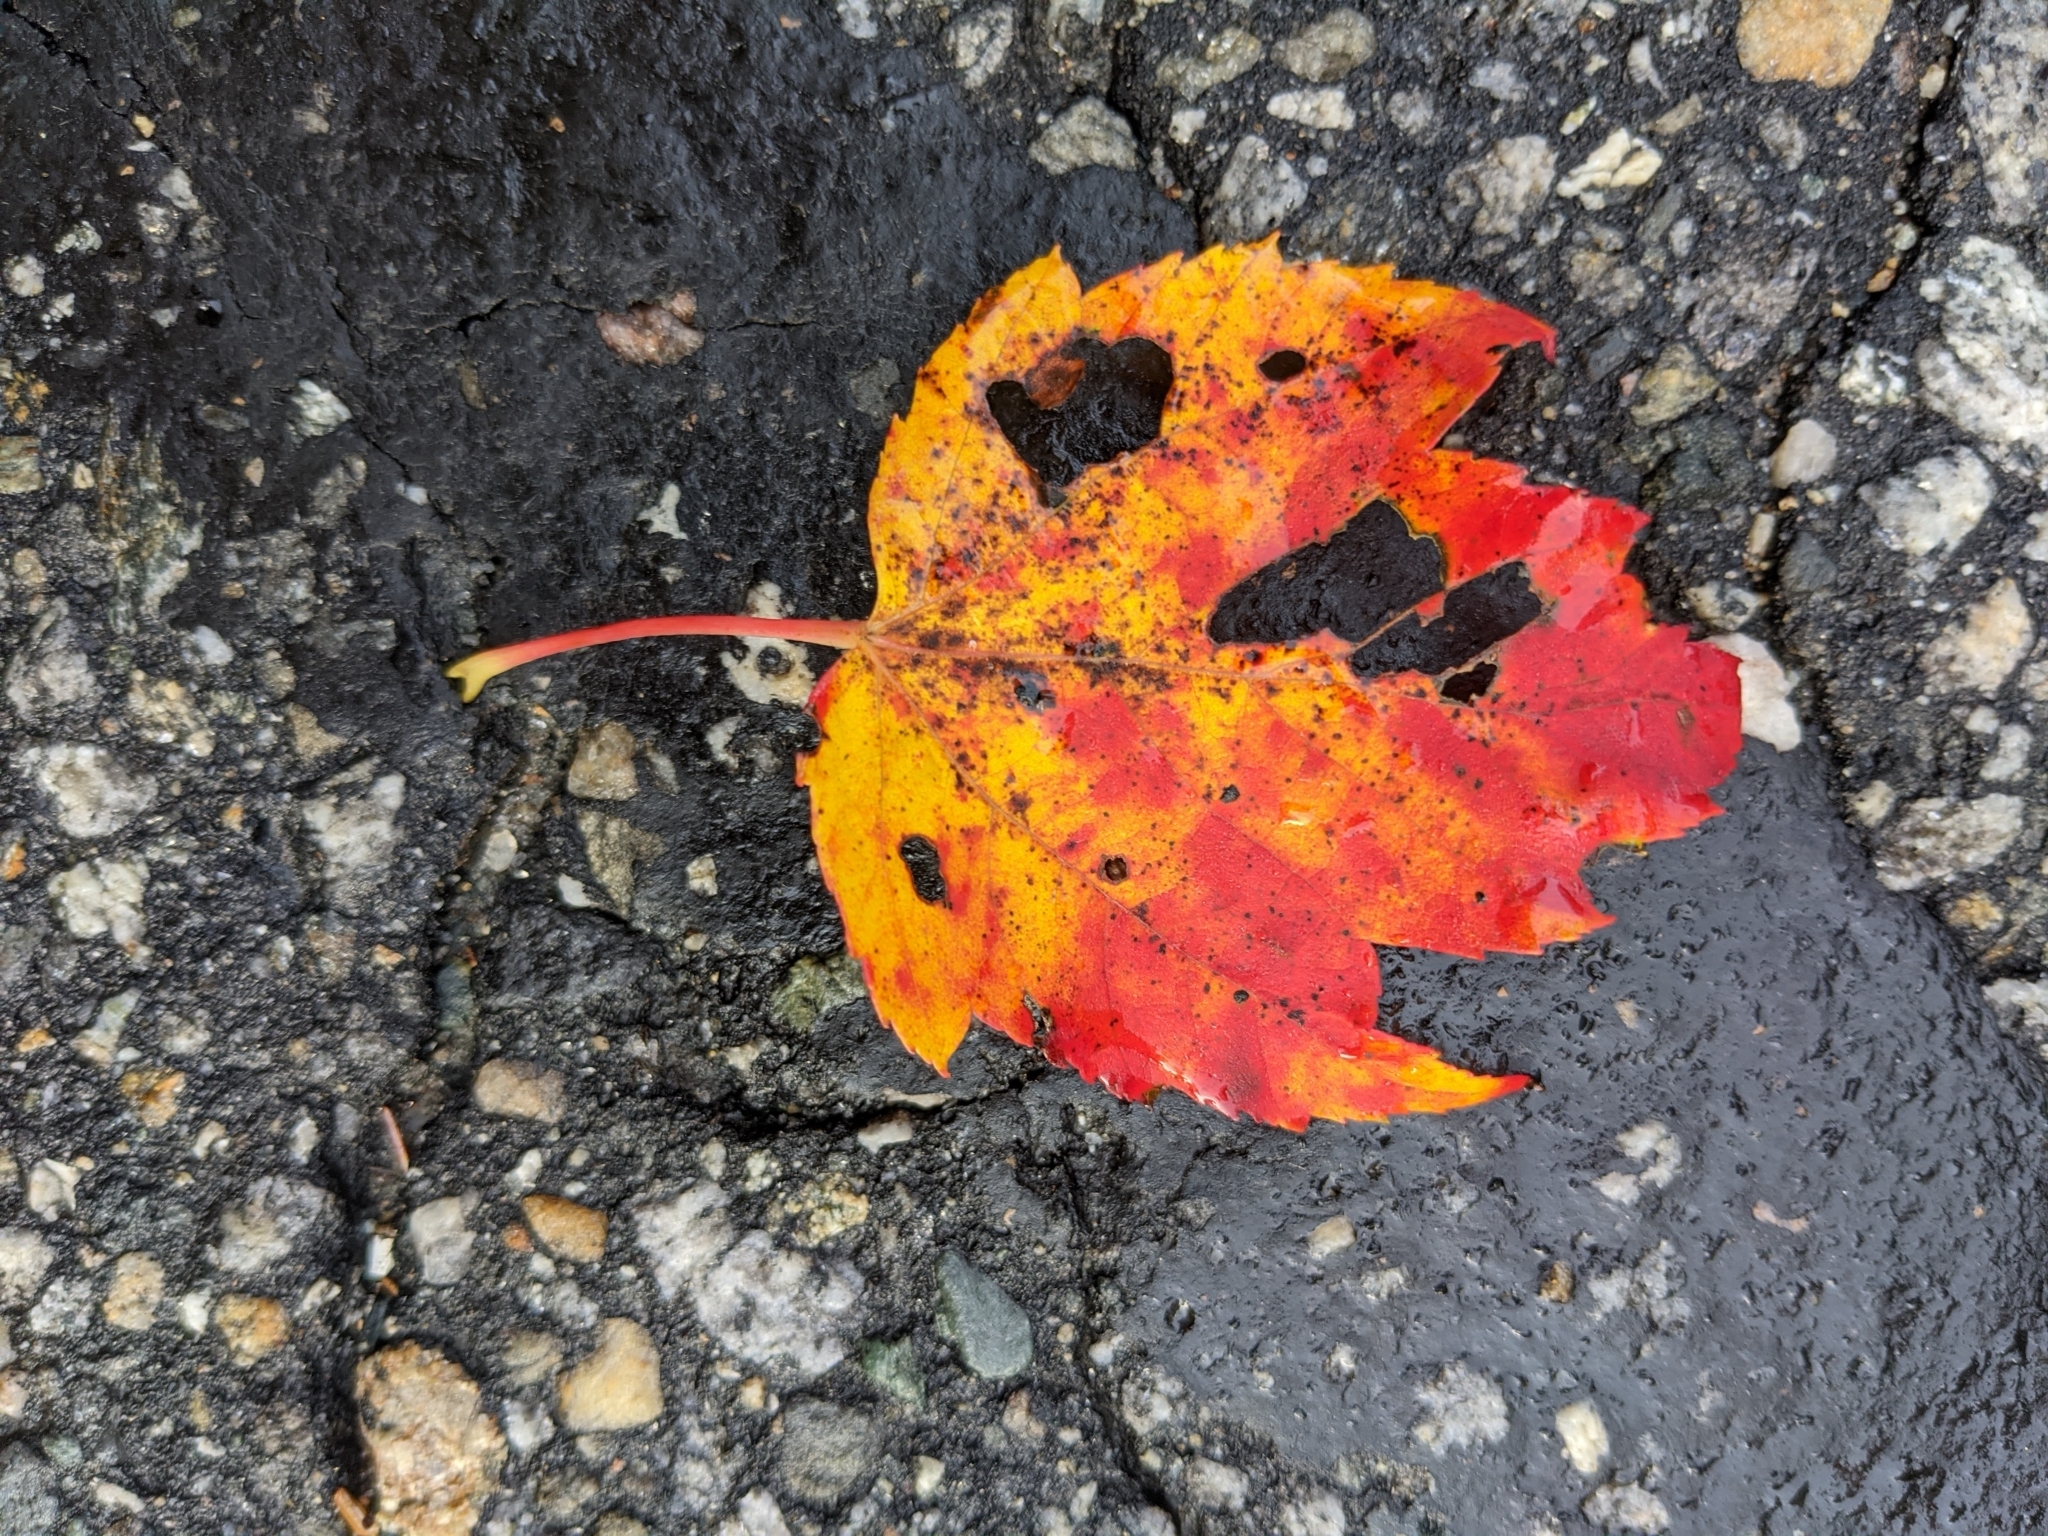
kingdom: Plantae
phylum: Tracheophyta
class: Magnoliopsida
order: Sapindales
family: Sapindaceae
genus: Acer
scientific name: Acer rubrum
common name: Red maple
